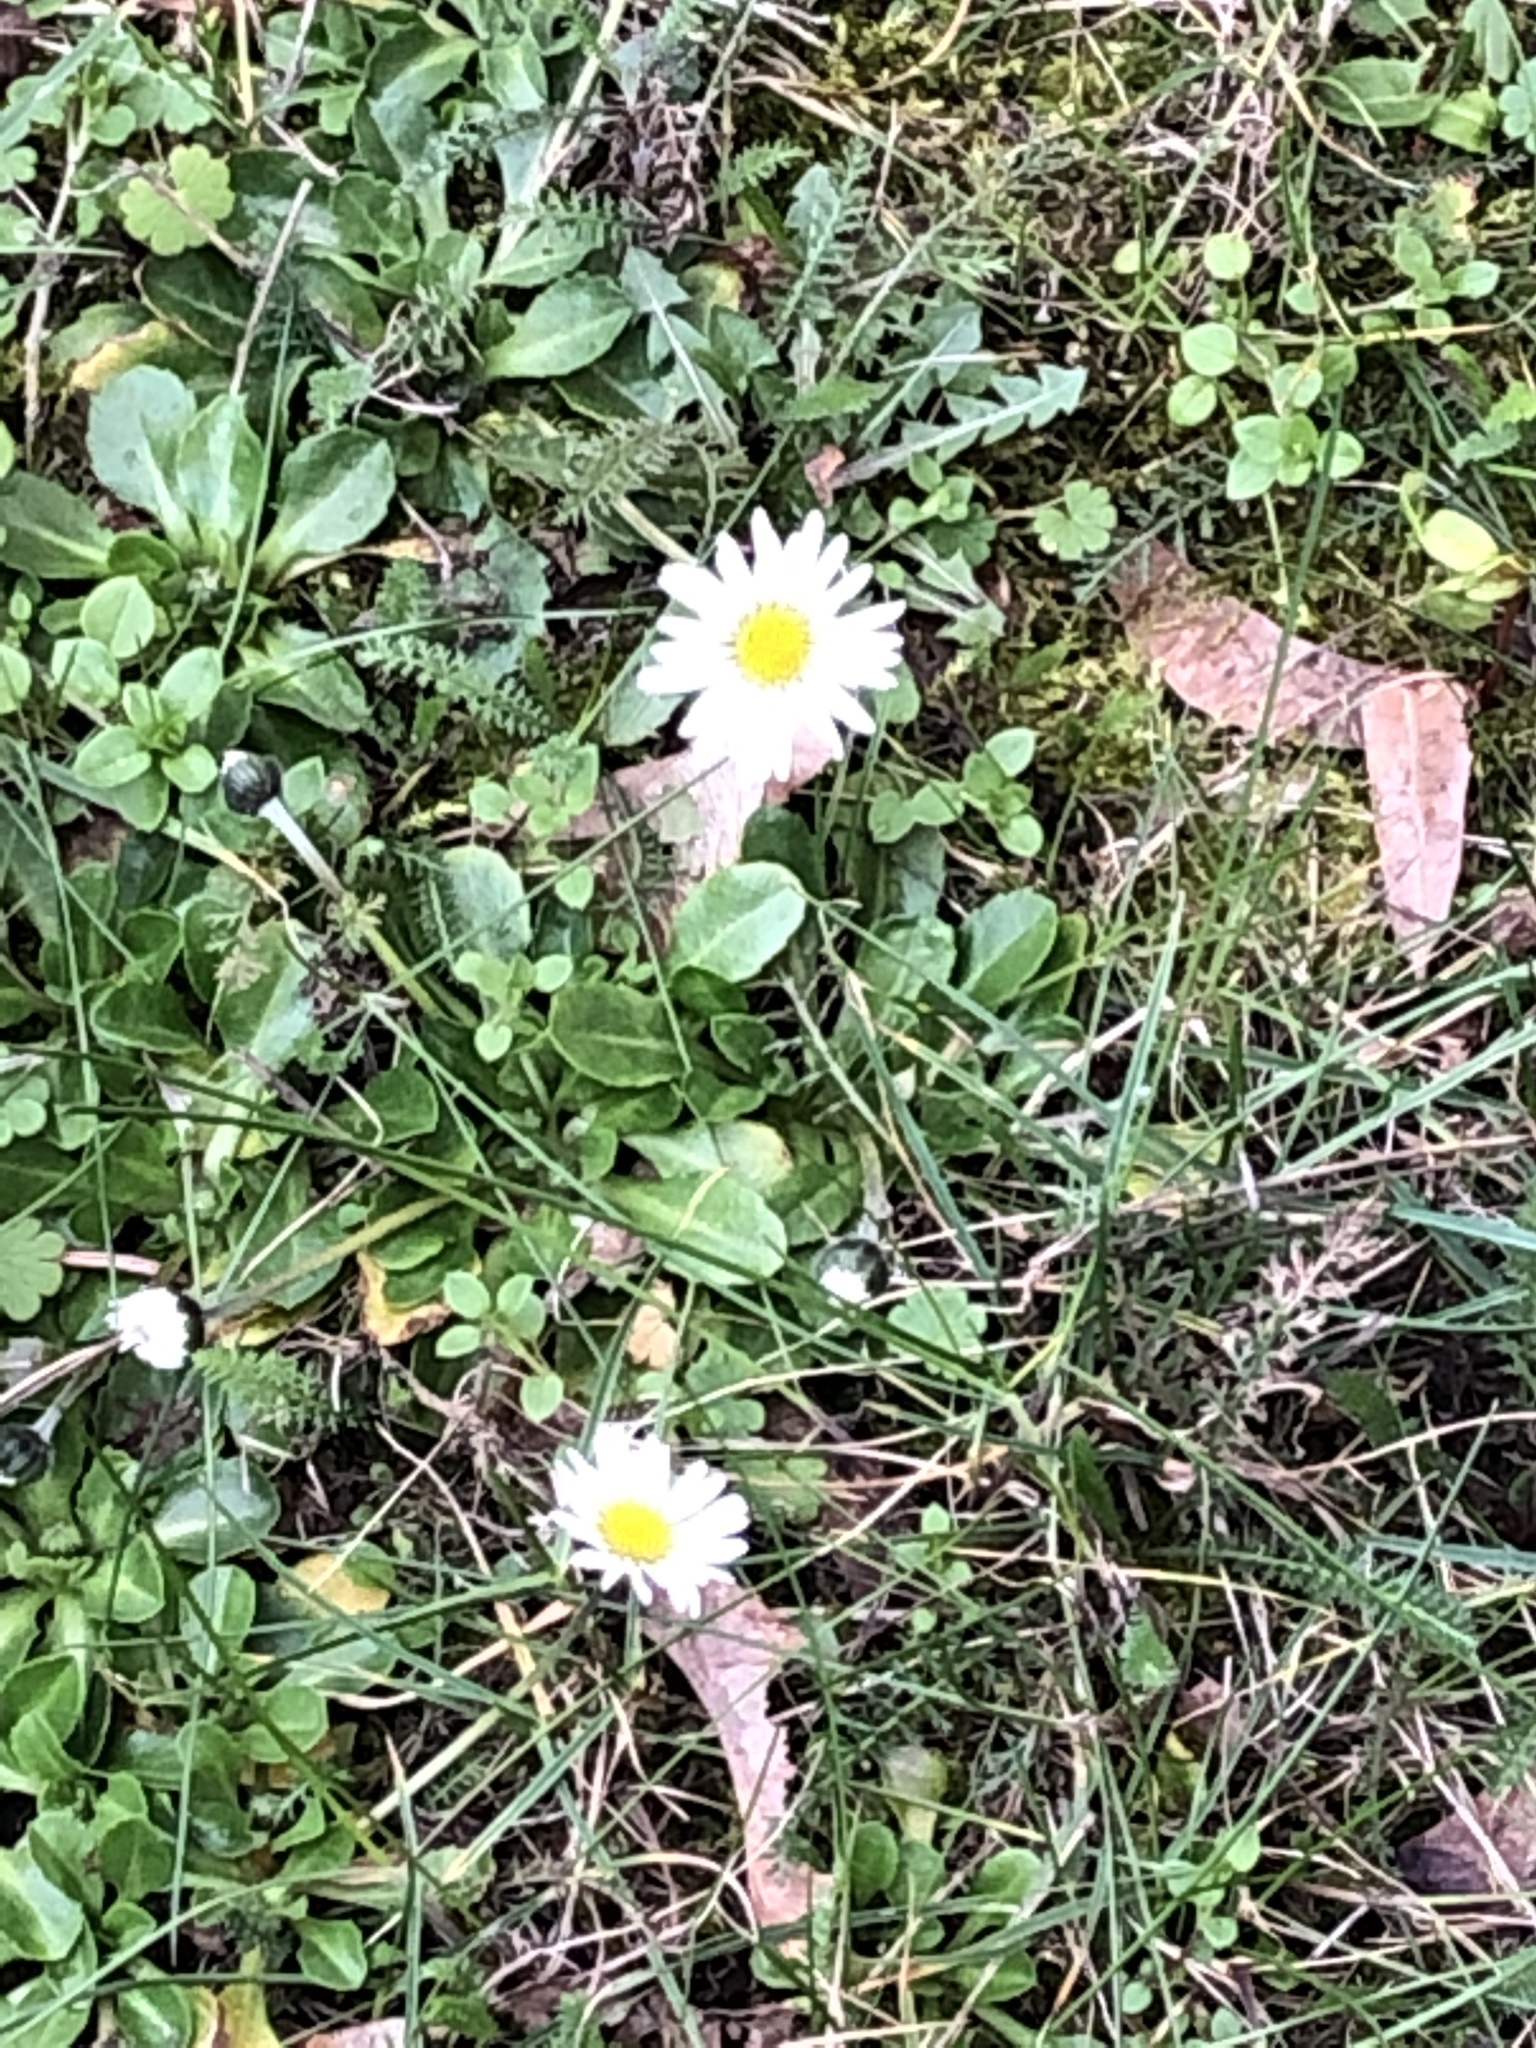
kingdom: Plantae
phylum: Tracheophyta
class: Magnoliopsida
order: Asterales
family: Asteraceae
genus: Bellis
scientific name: Bellis perennis
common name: Lawndaisy
